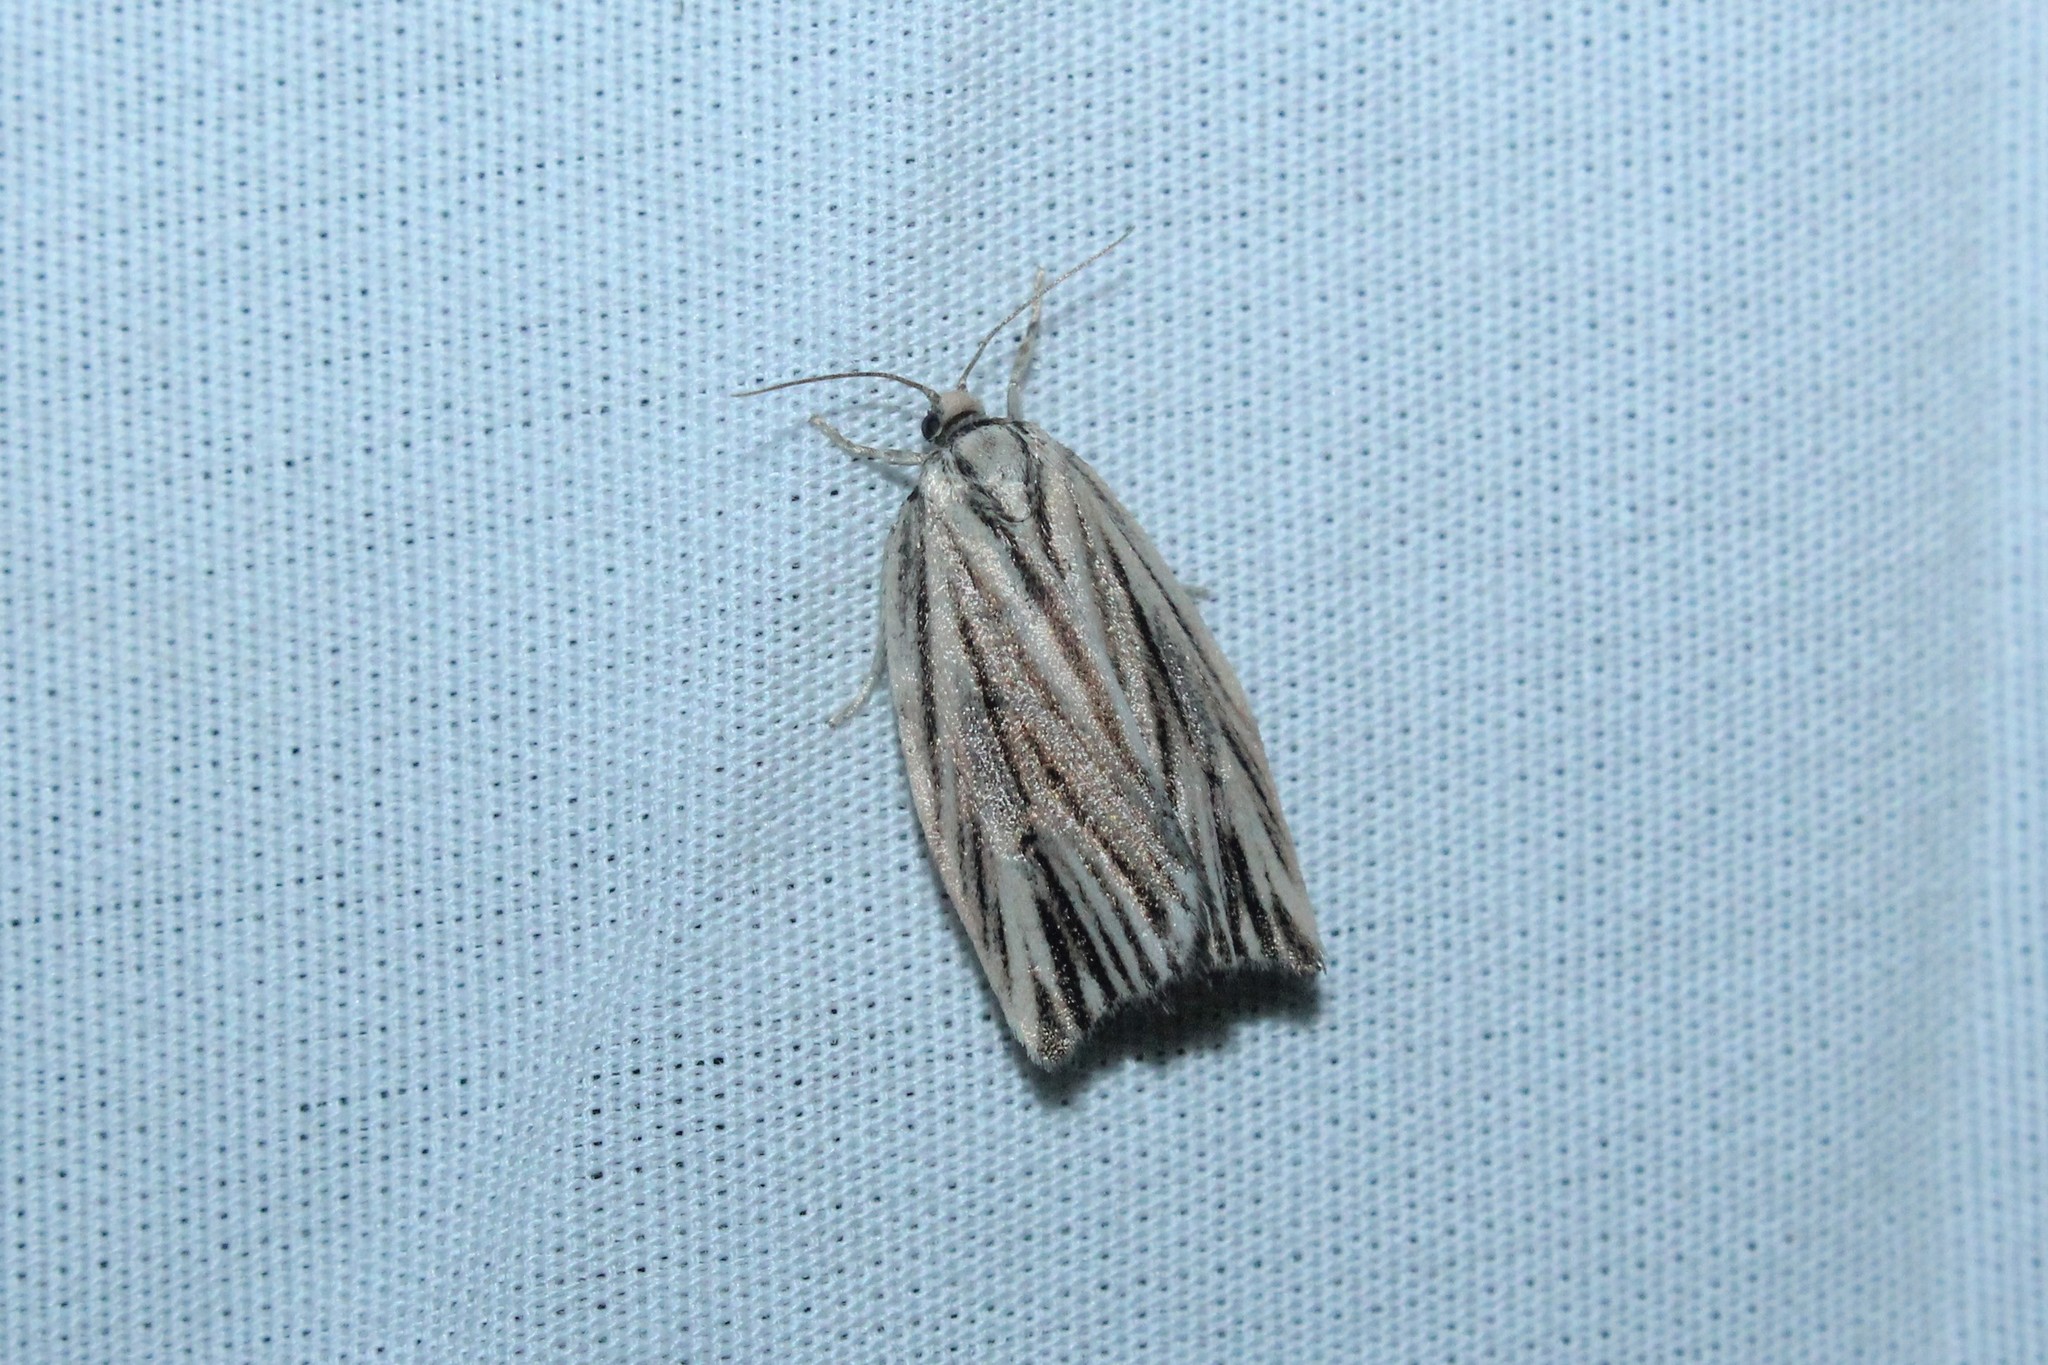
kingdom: Animalia
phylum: Arthropoda
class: Insecta
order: Lepidoptera
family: Tortricidae
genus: Archips
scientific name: Archips strianus
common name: Striated tortrix moth
